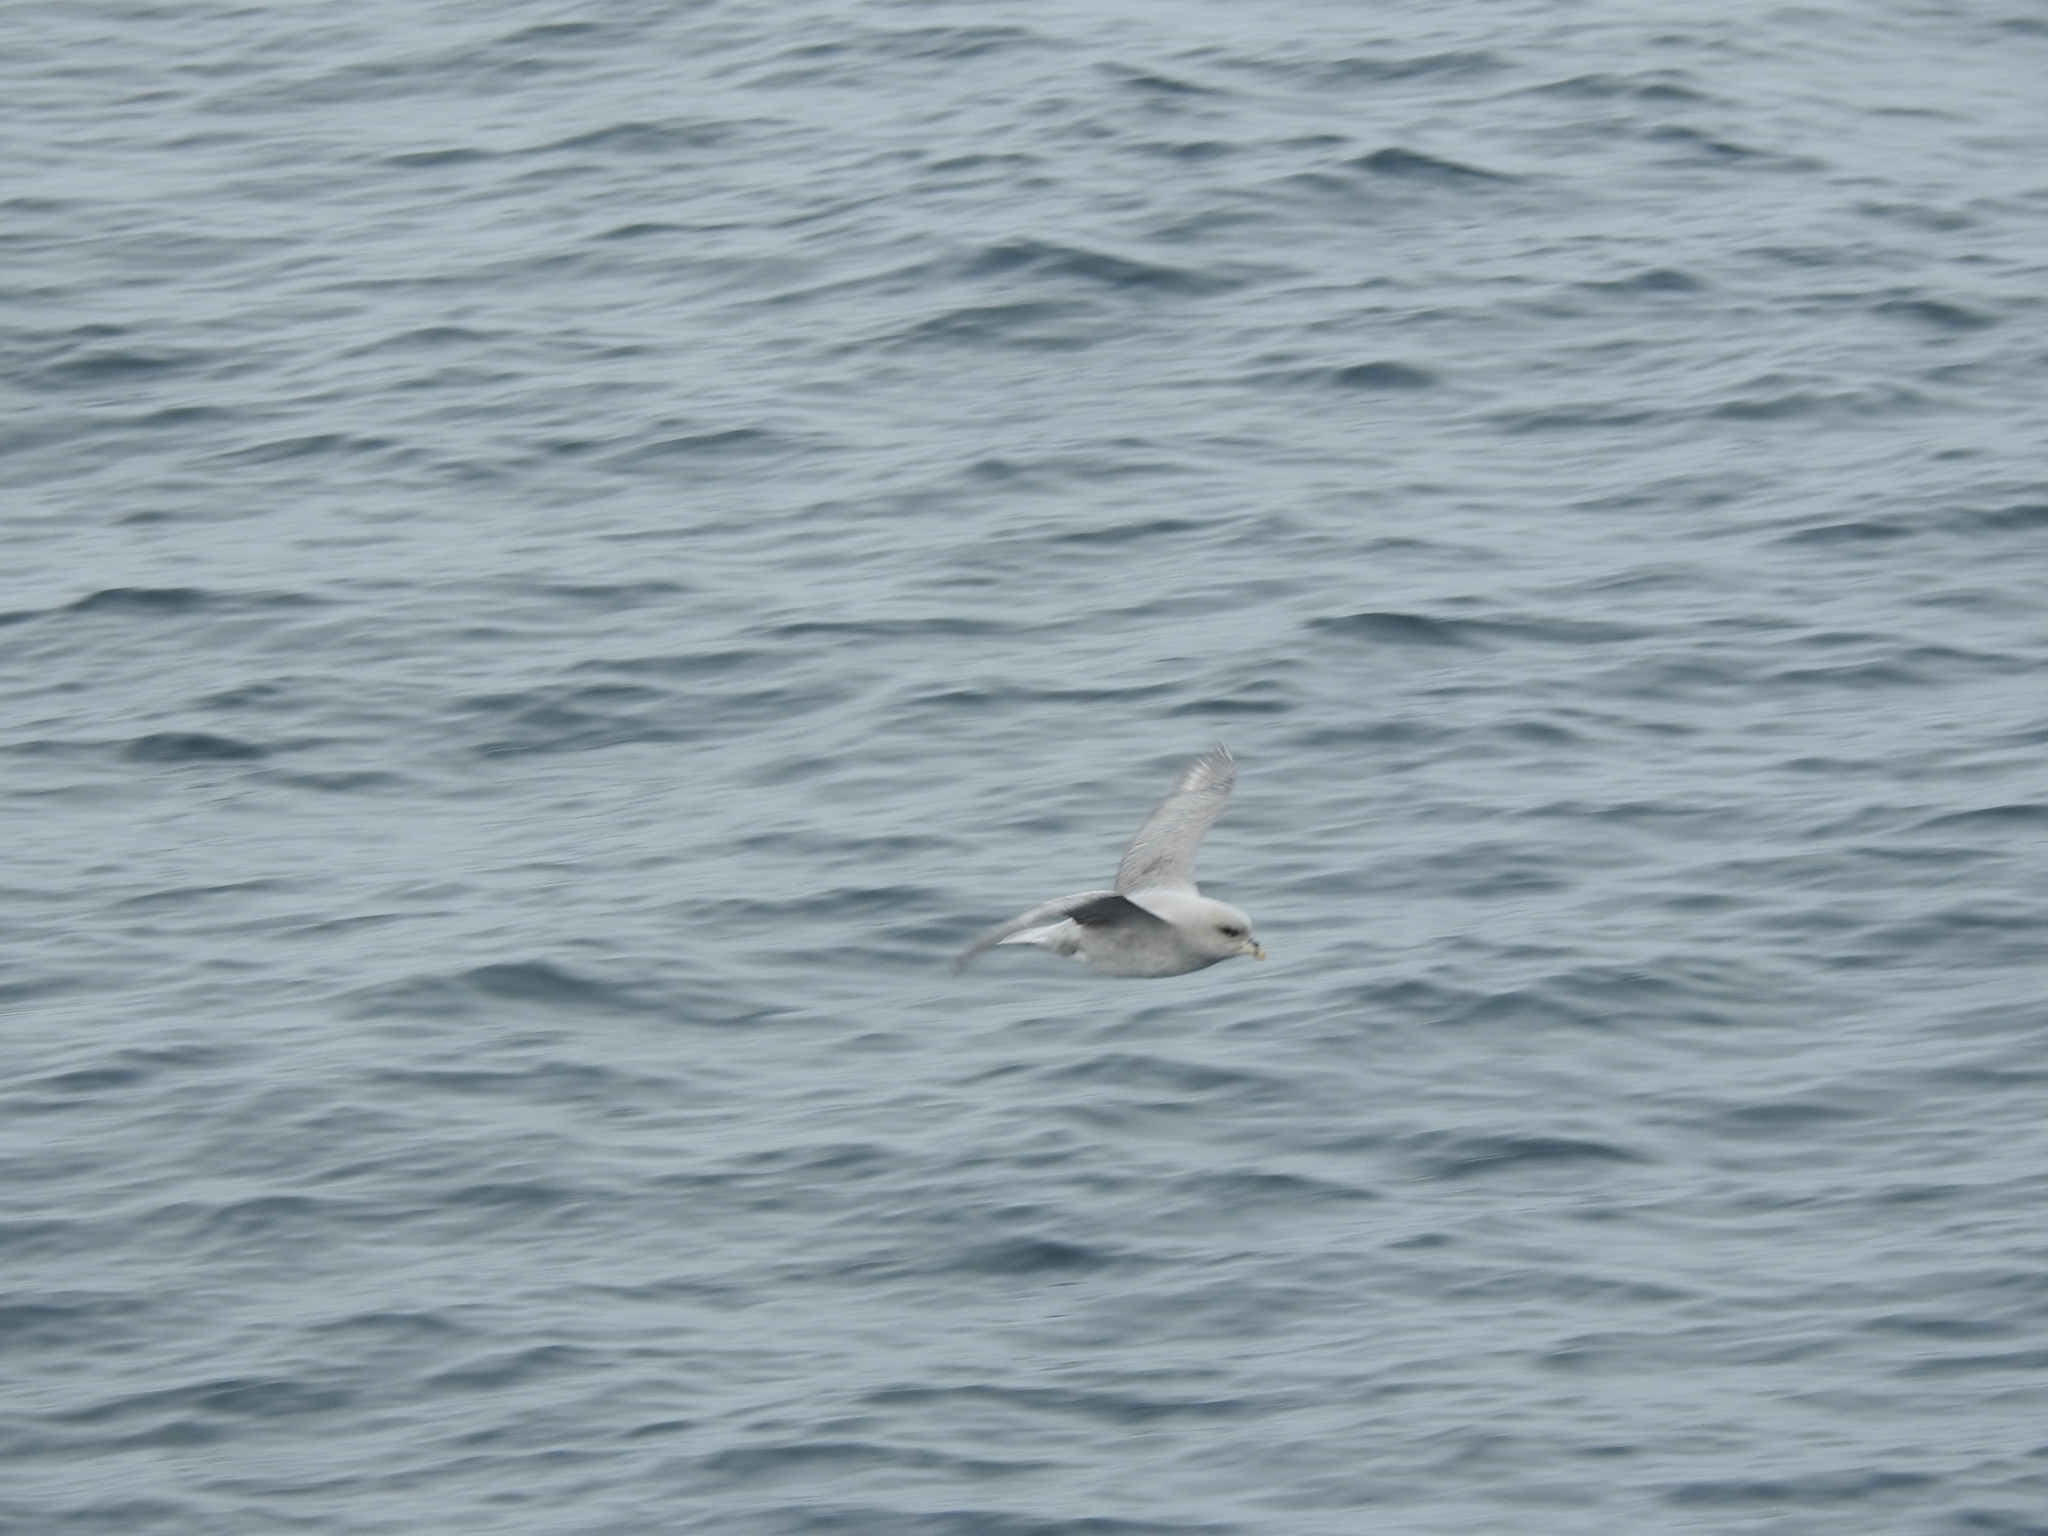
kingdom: Animalia
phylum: Chordata
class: Aves
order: Procellariiformes
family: Procellariidae
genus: Fulmarus
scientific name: Fulmarus glacialis
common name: Northern fulmar
